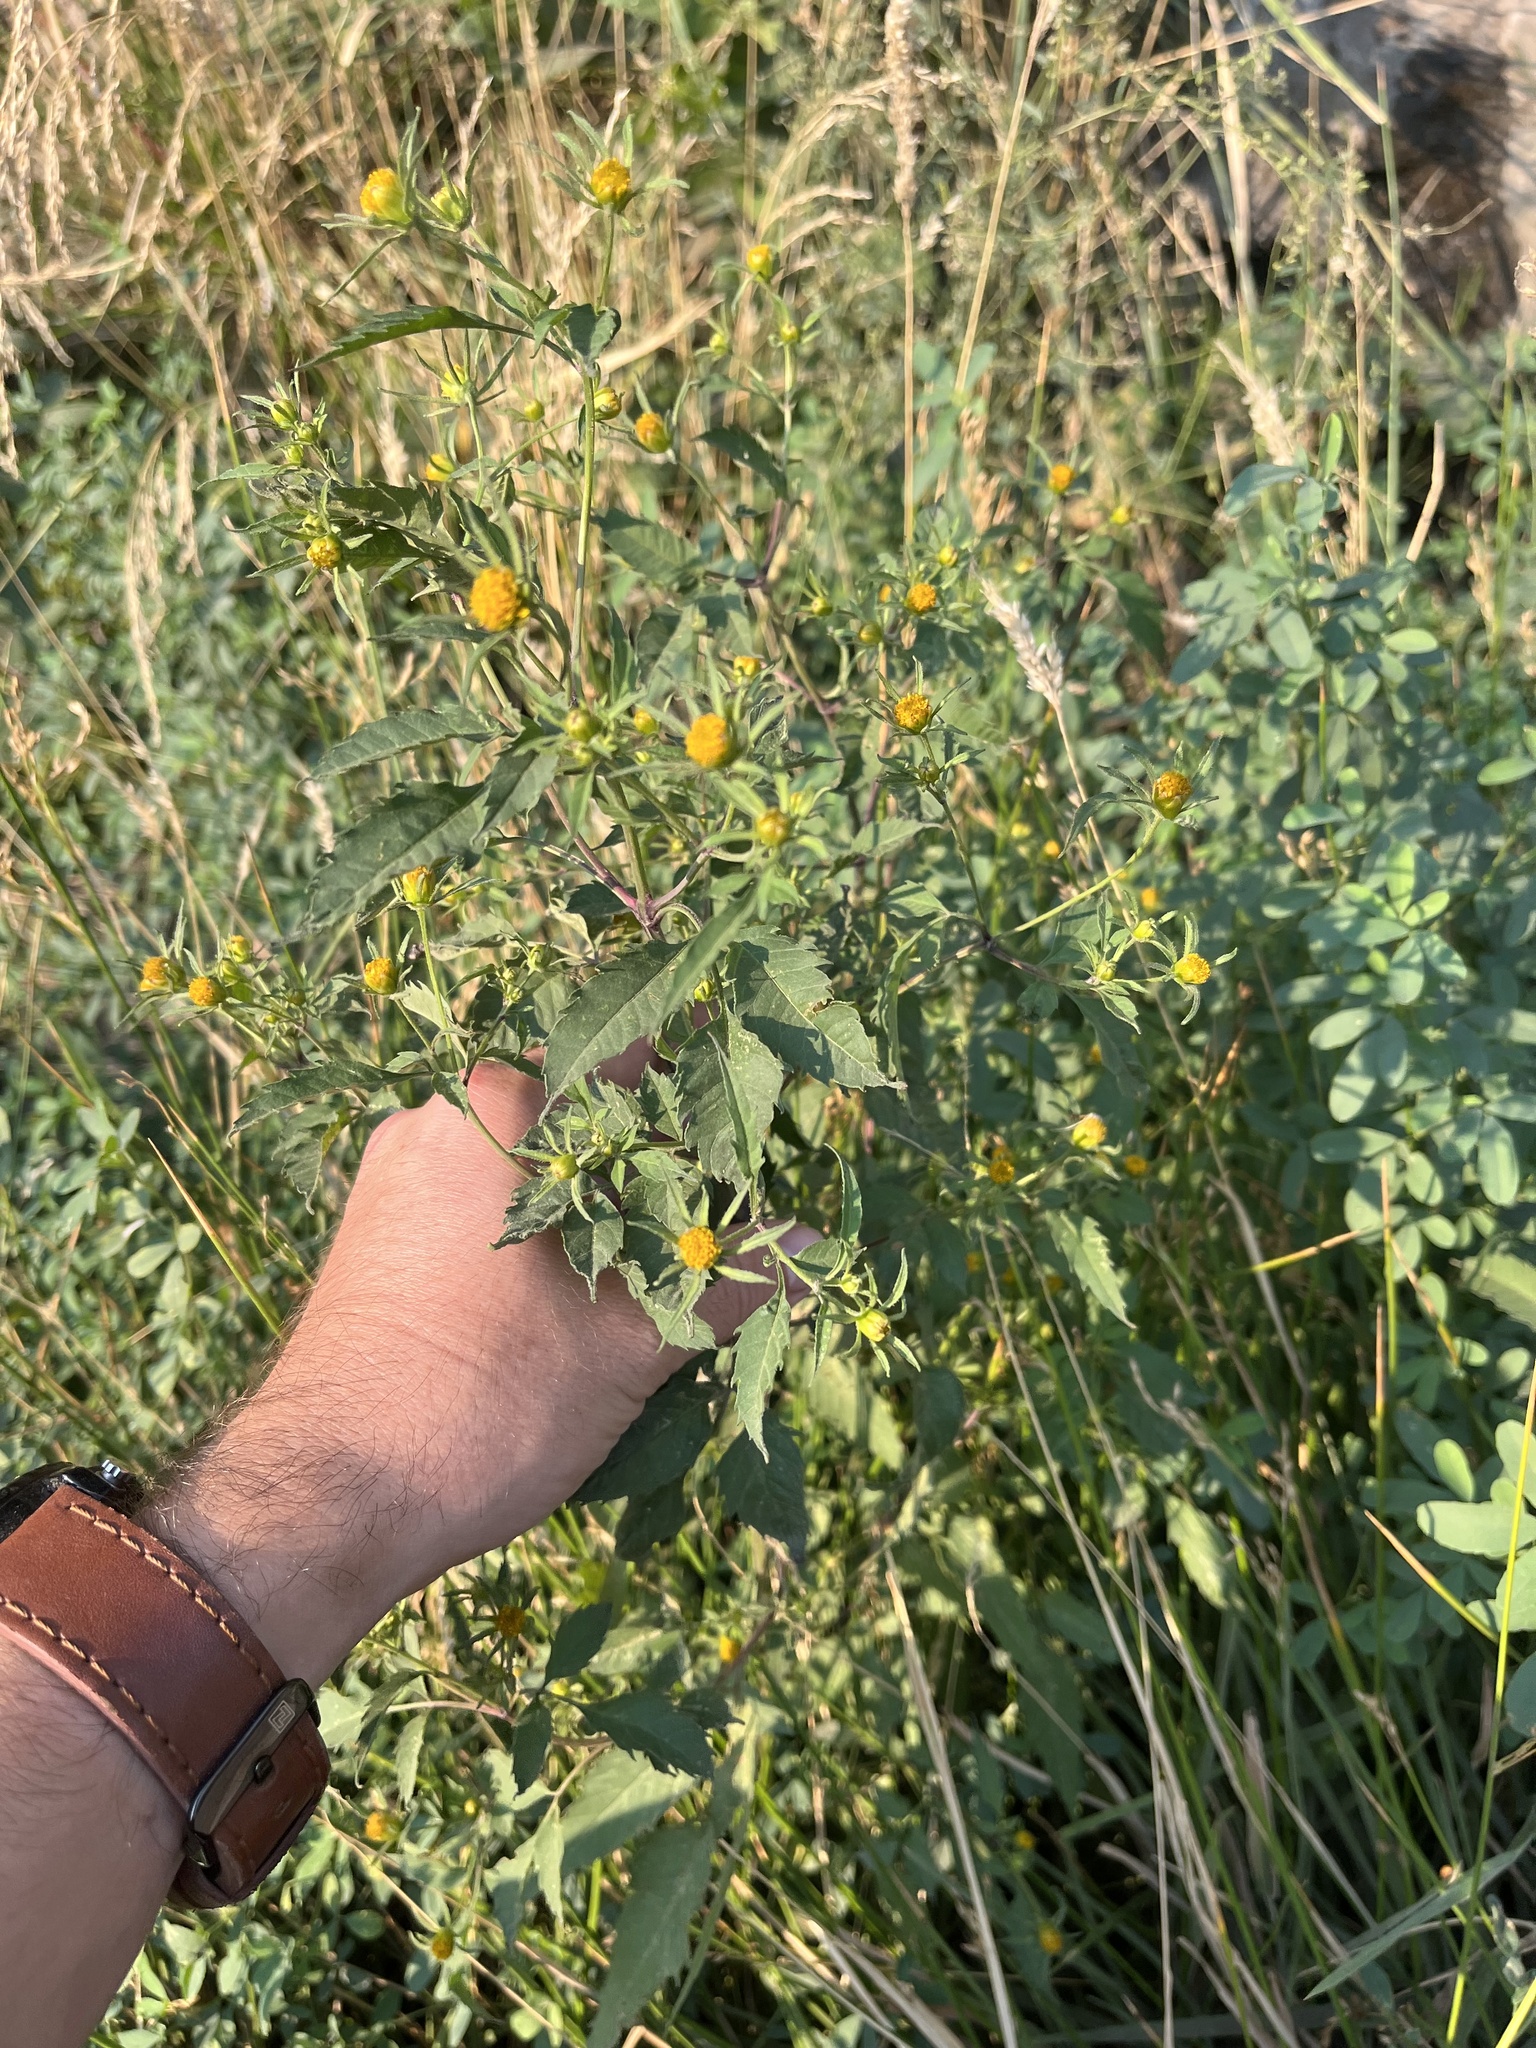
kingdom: Plantae
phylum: Tracheophyta
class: Magnoliopsida
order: Asterales
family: Asteraceae
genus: Bidens
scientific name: Bidens frondosa
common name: Beggarticks
